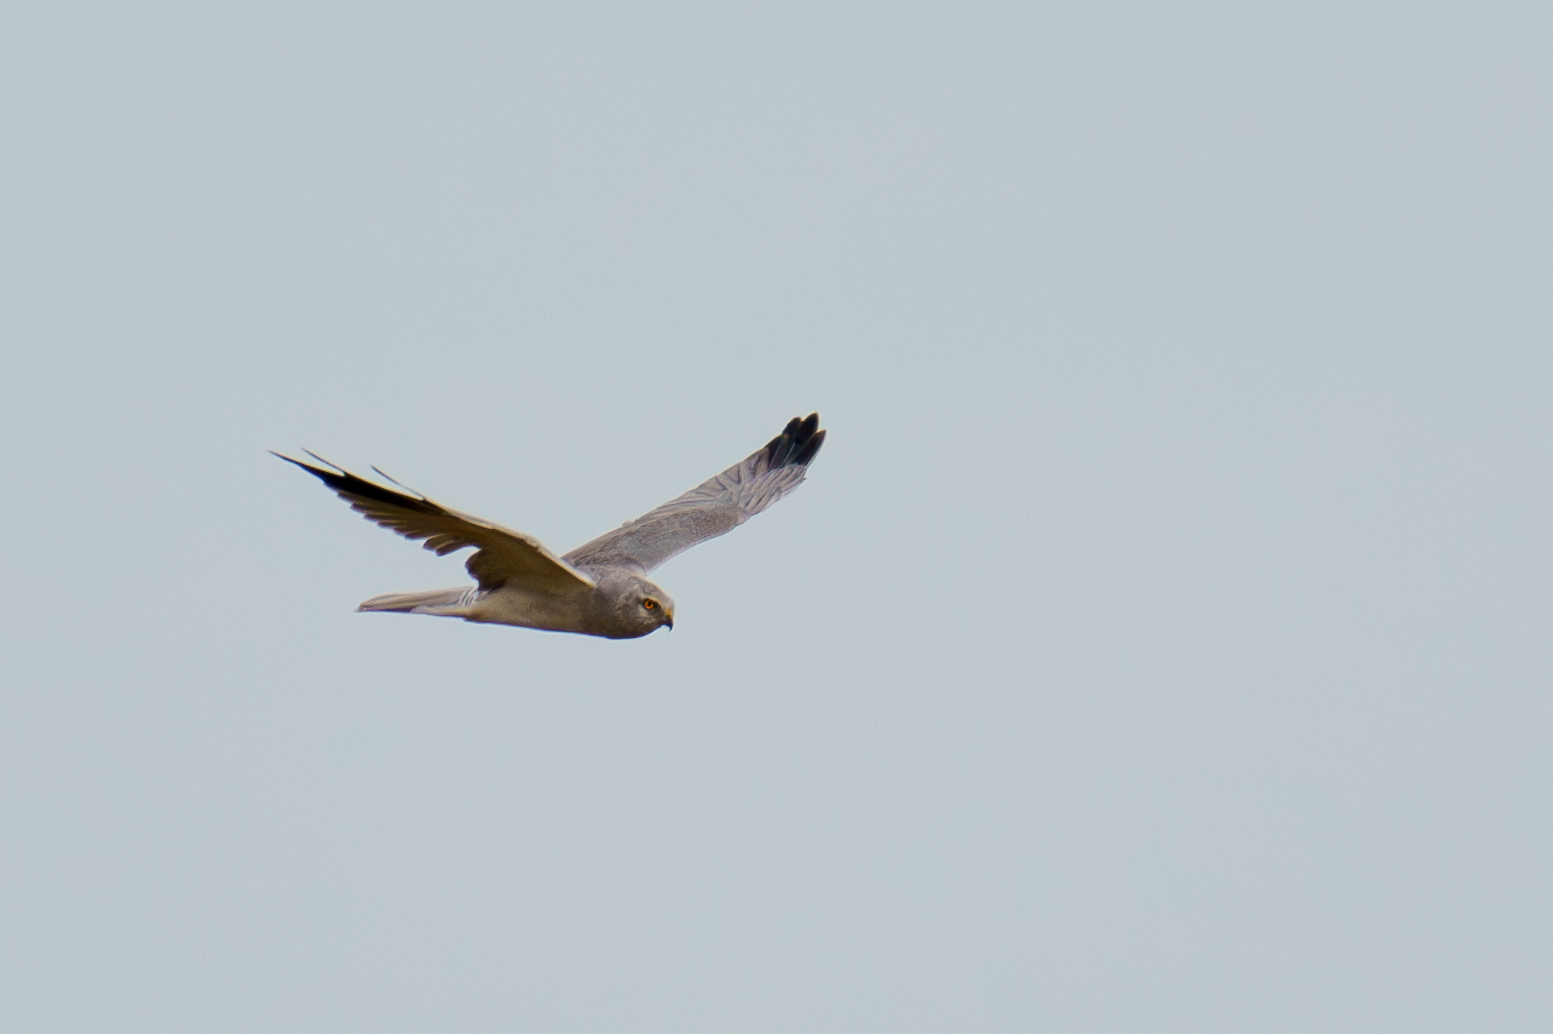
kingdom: Animalia
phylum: Chordata
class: Aves
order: Accipitriformes
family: Accipitridae
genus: Circus
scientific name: Circus macrourus
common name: Pallid harrier
